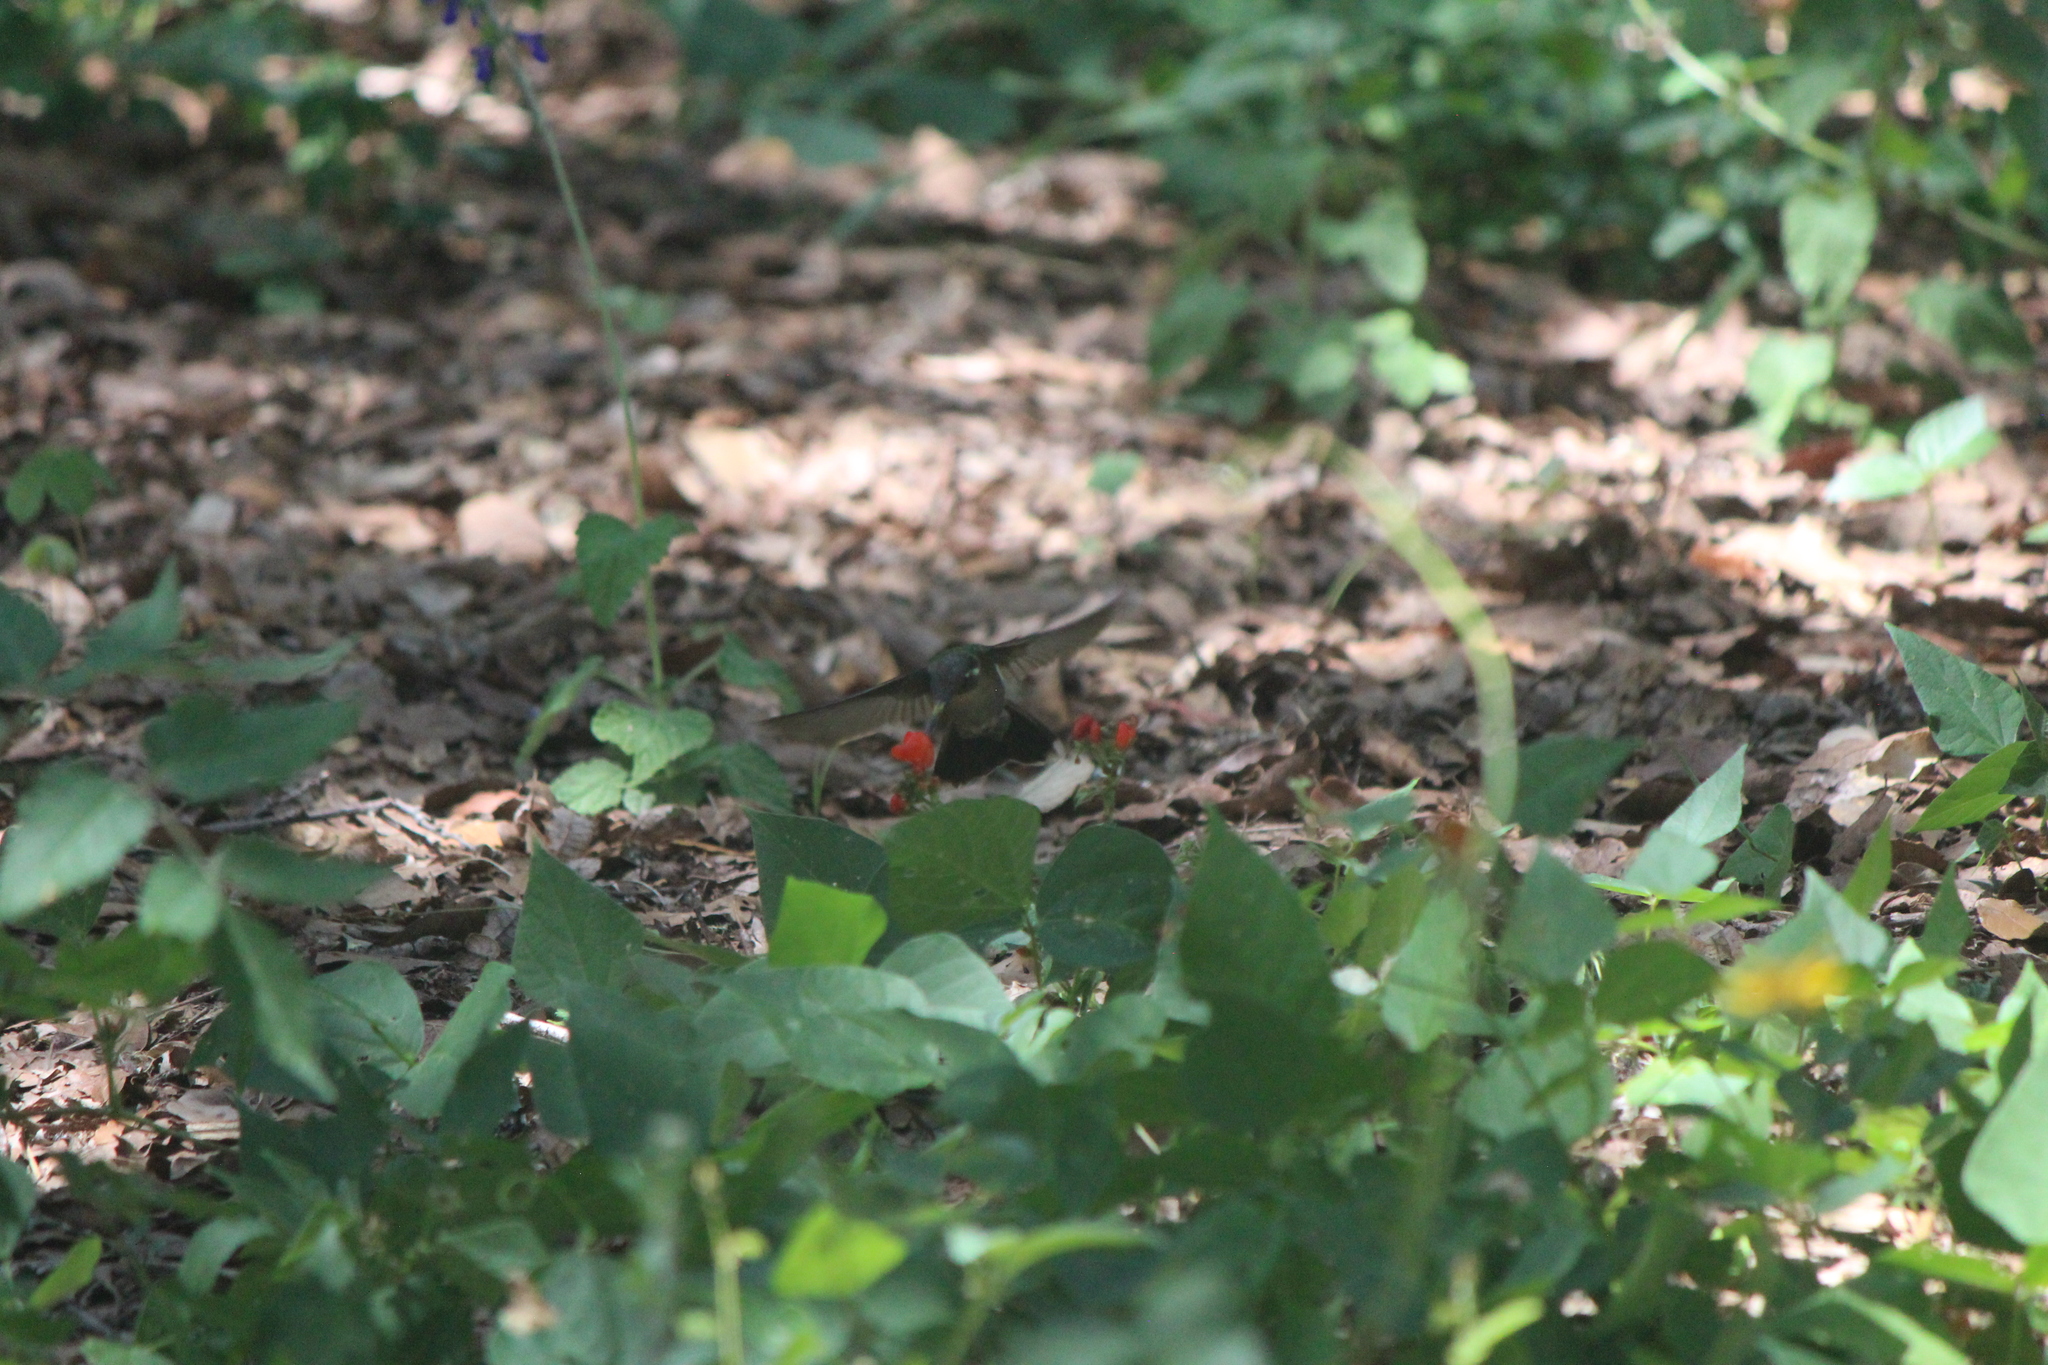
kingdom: Animalia
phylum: Chordata
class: Aves
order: Apodiformes
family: Trochilidae
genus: Basilinna
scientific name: Basilinna leucotis
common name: White-eared hummingbird
